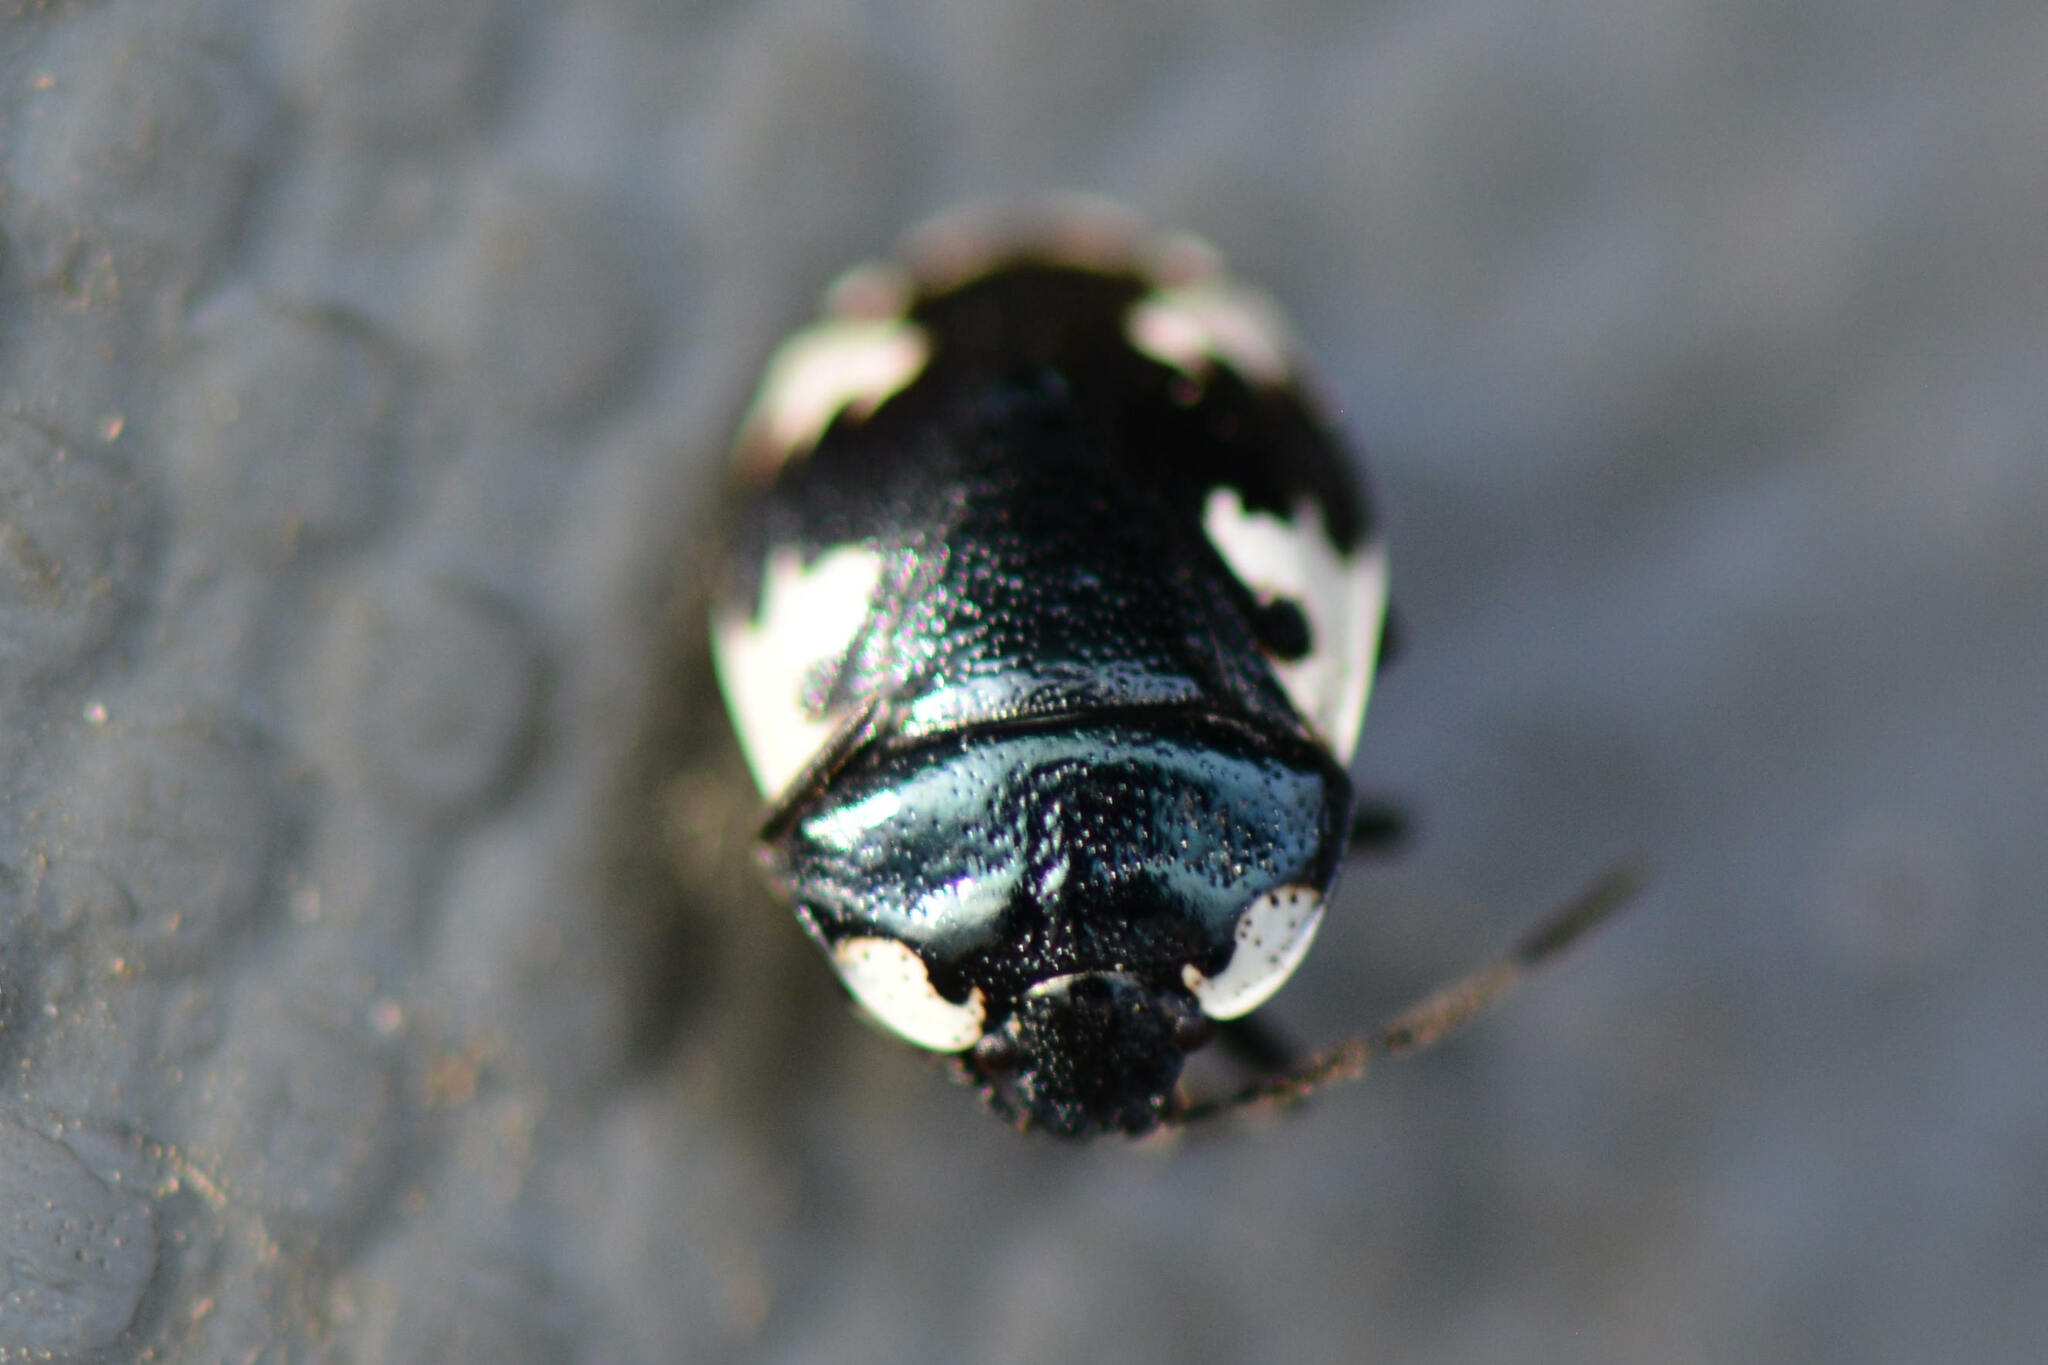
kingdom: Animalia
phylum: Arthropoda
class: Insecta
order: Hemiptera
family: Cydnidae
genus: Tritomegas
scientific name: Tritomegas rotundipennis
